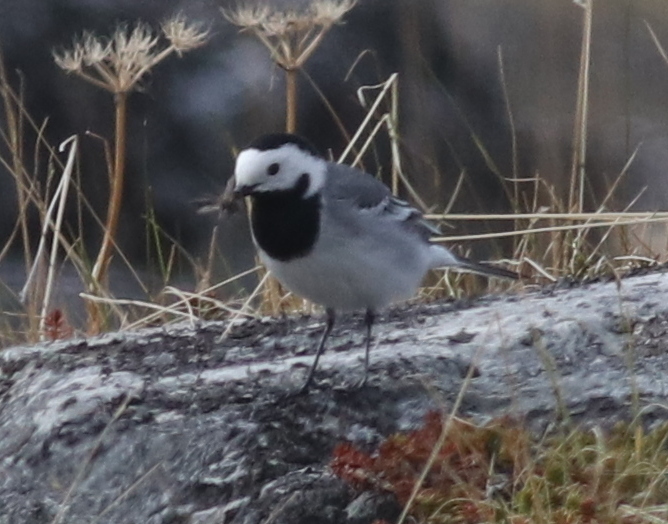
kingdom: Animalia
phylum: Chordata
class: Aves
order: Passeriformes
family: Motacillidae
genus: Motacilla
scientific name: Motacilla alba
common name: White wagtail
